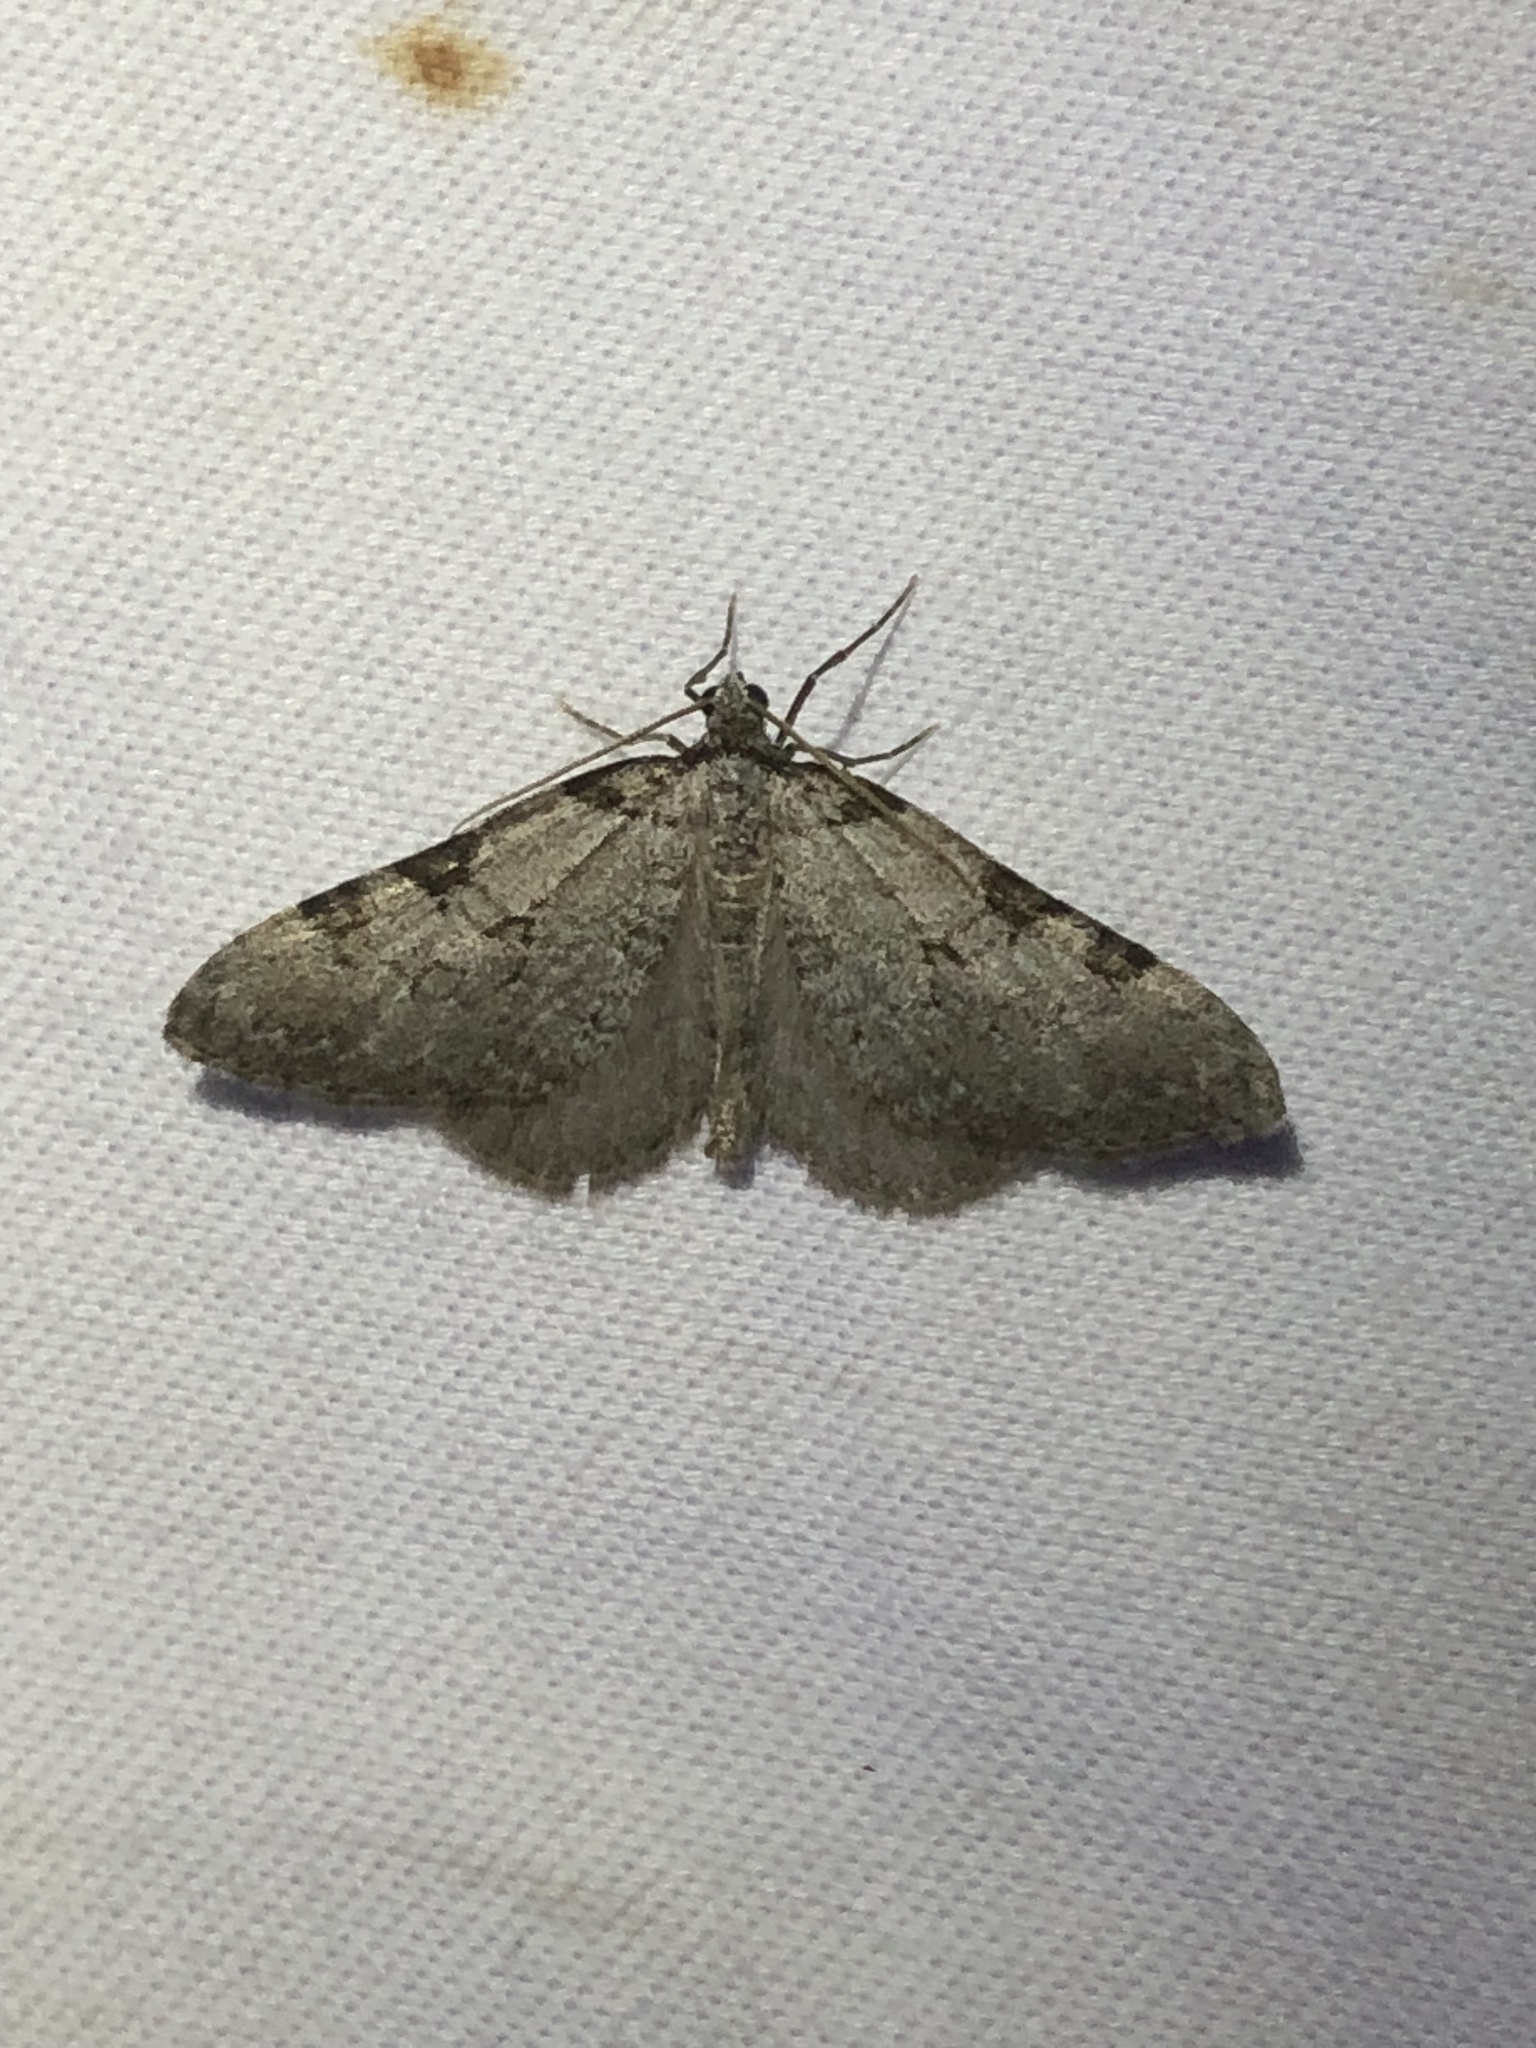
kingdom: Animalia
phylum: Arthropoda
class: Insecta
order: Lepidoptera
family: Geometridae
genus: Perizoma
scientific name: Perizoma costiguttata
